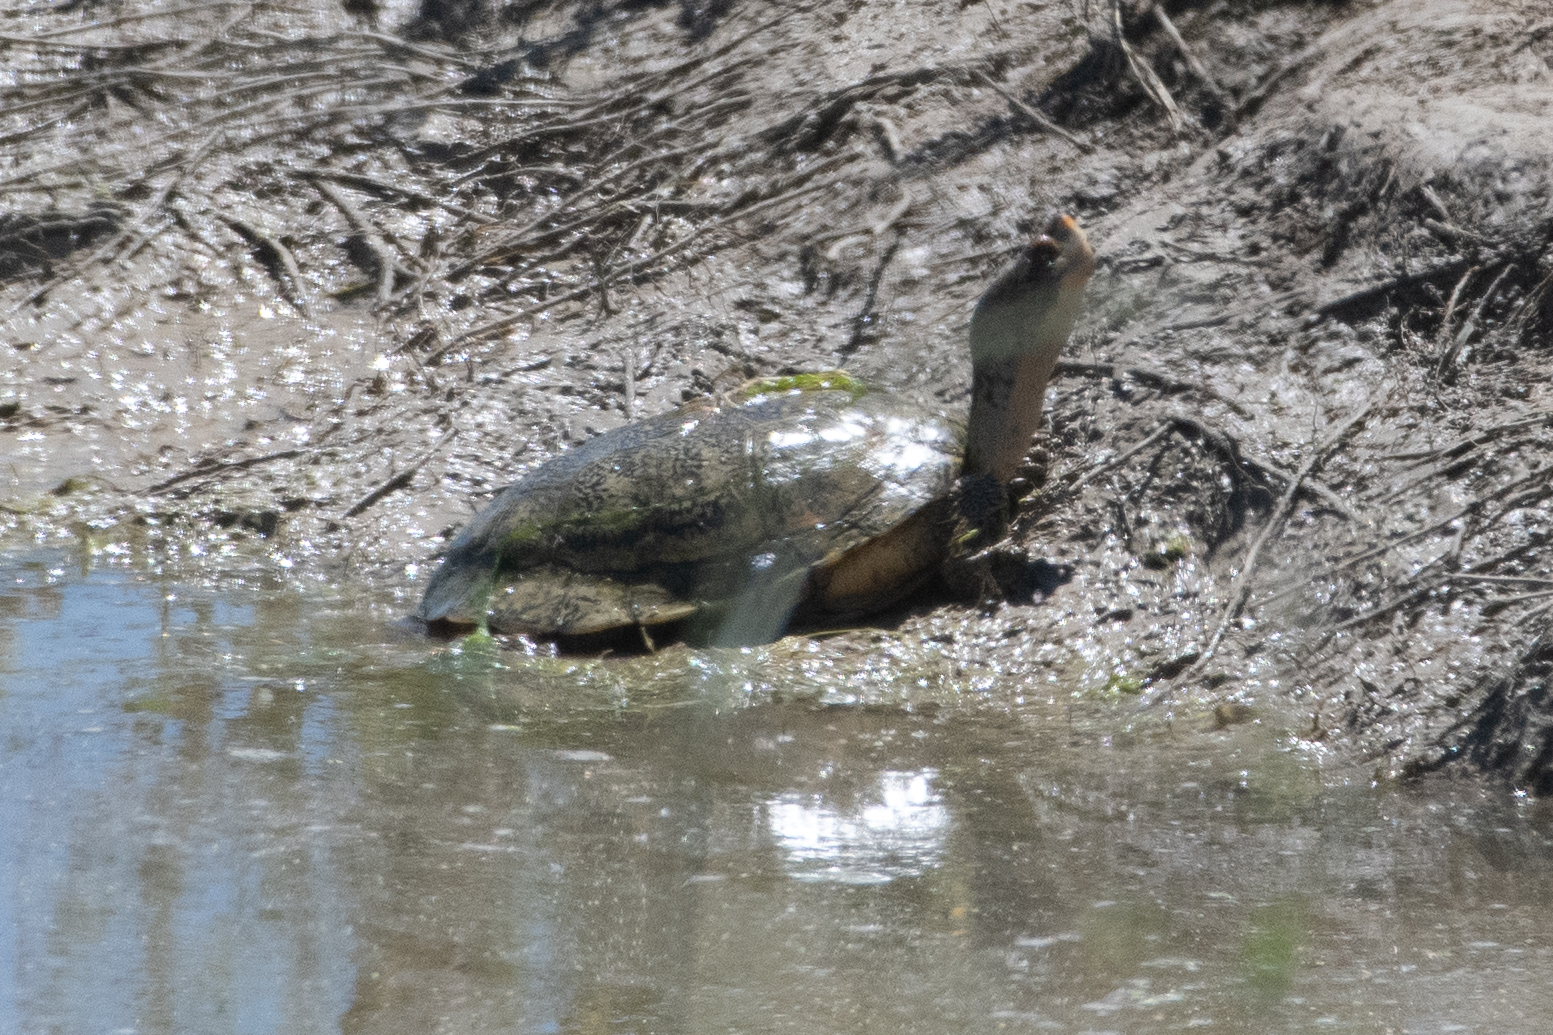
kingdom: Animalia
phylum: Chordata
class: Testudines
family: Emydidae
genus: Actinemys
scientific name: Actinemys marmorata
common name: Western pond turtle
